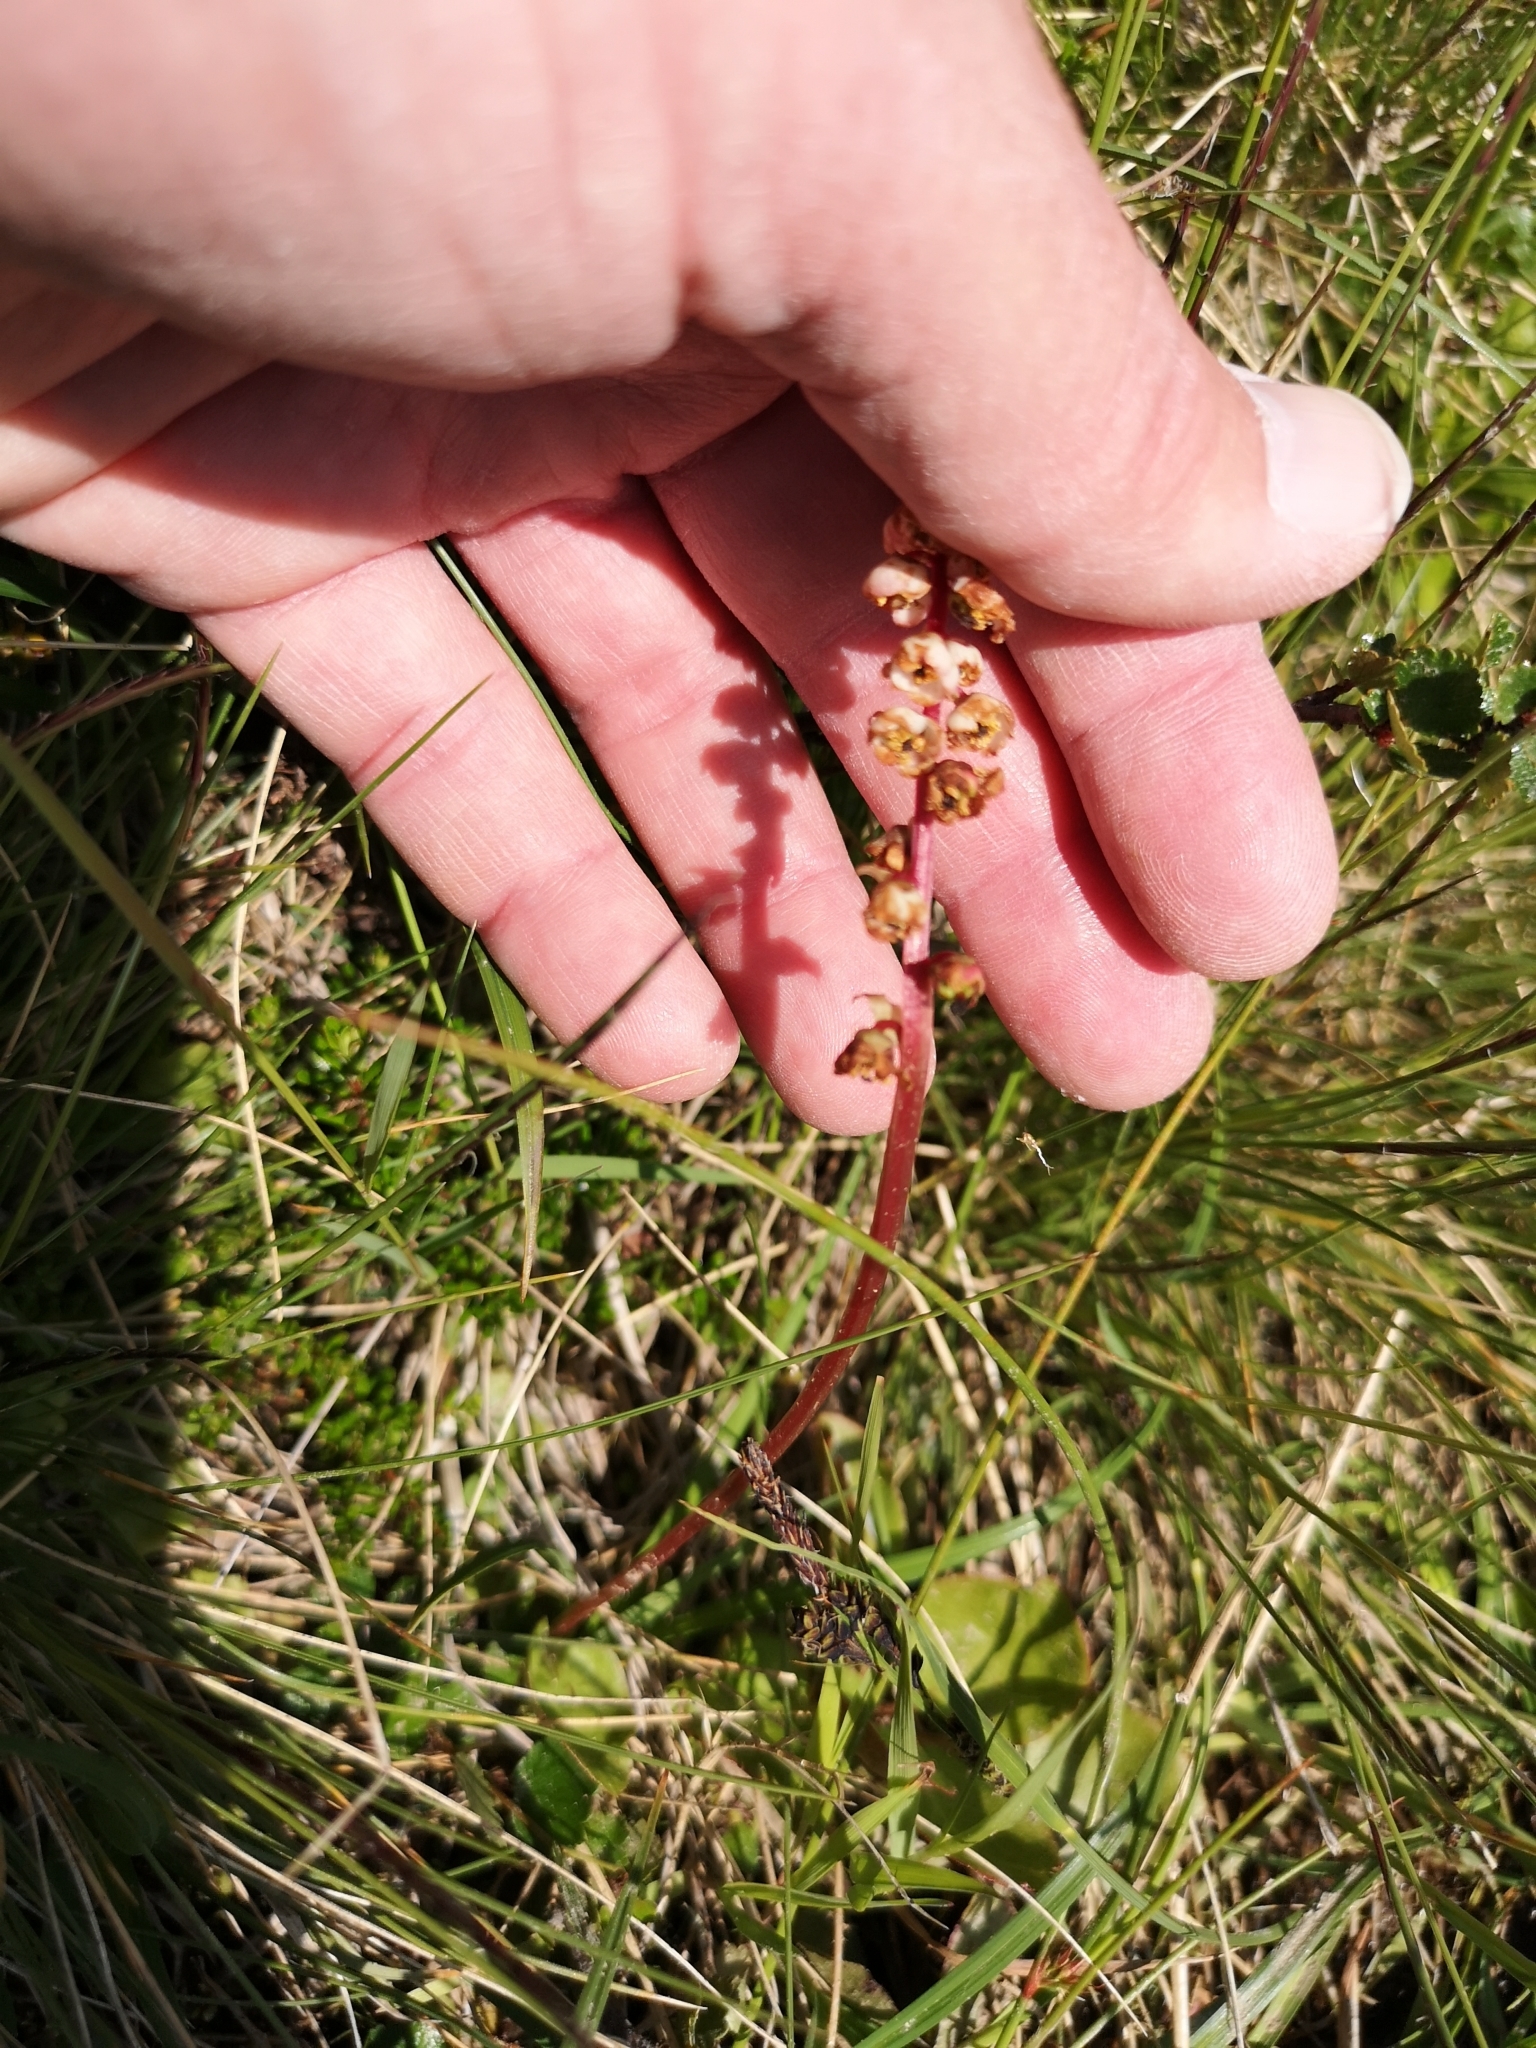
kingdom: Plantae
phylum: Tracheophyta
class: Magnoliopsida
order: Ericales
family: Ericaceae
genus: Pyrola
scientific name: Pyrola minor
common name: Common wintergreen
